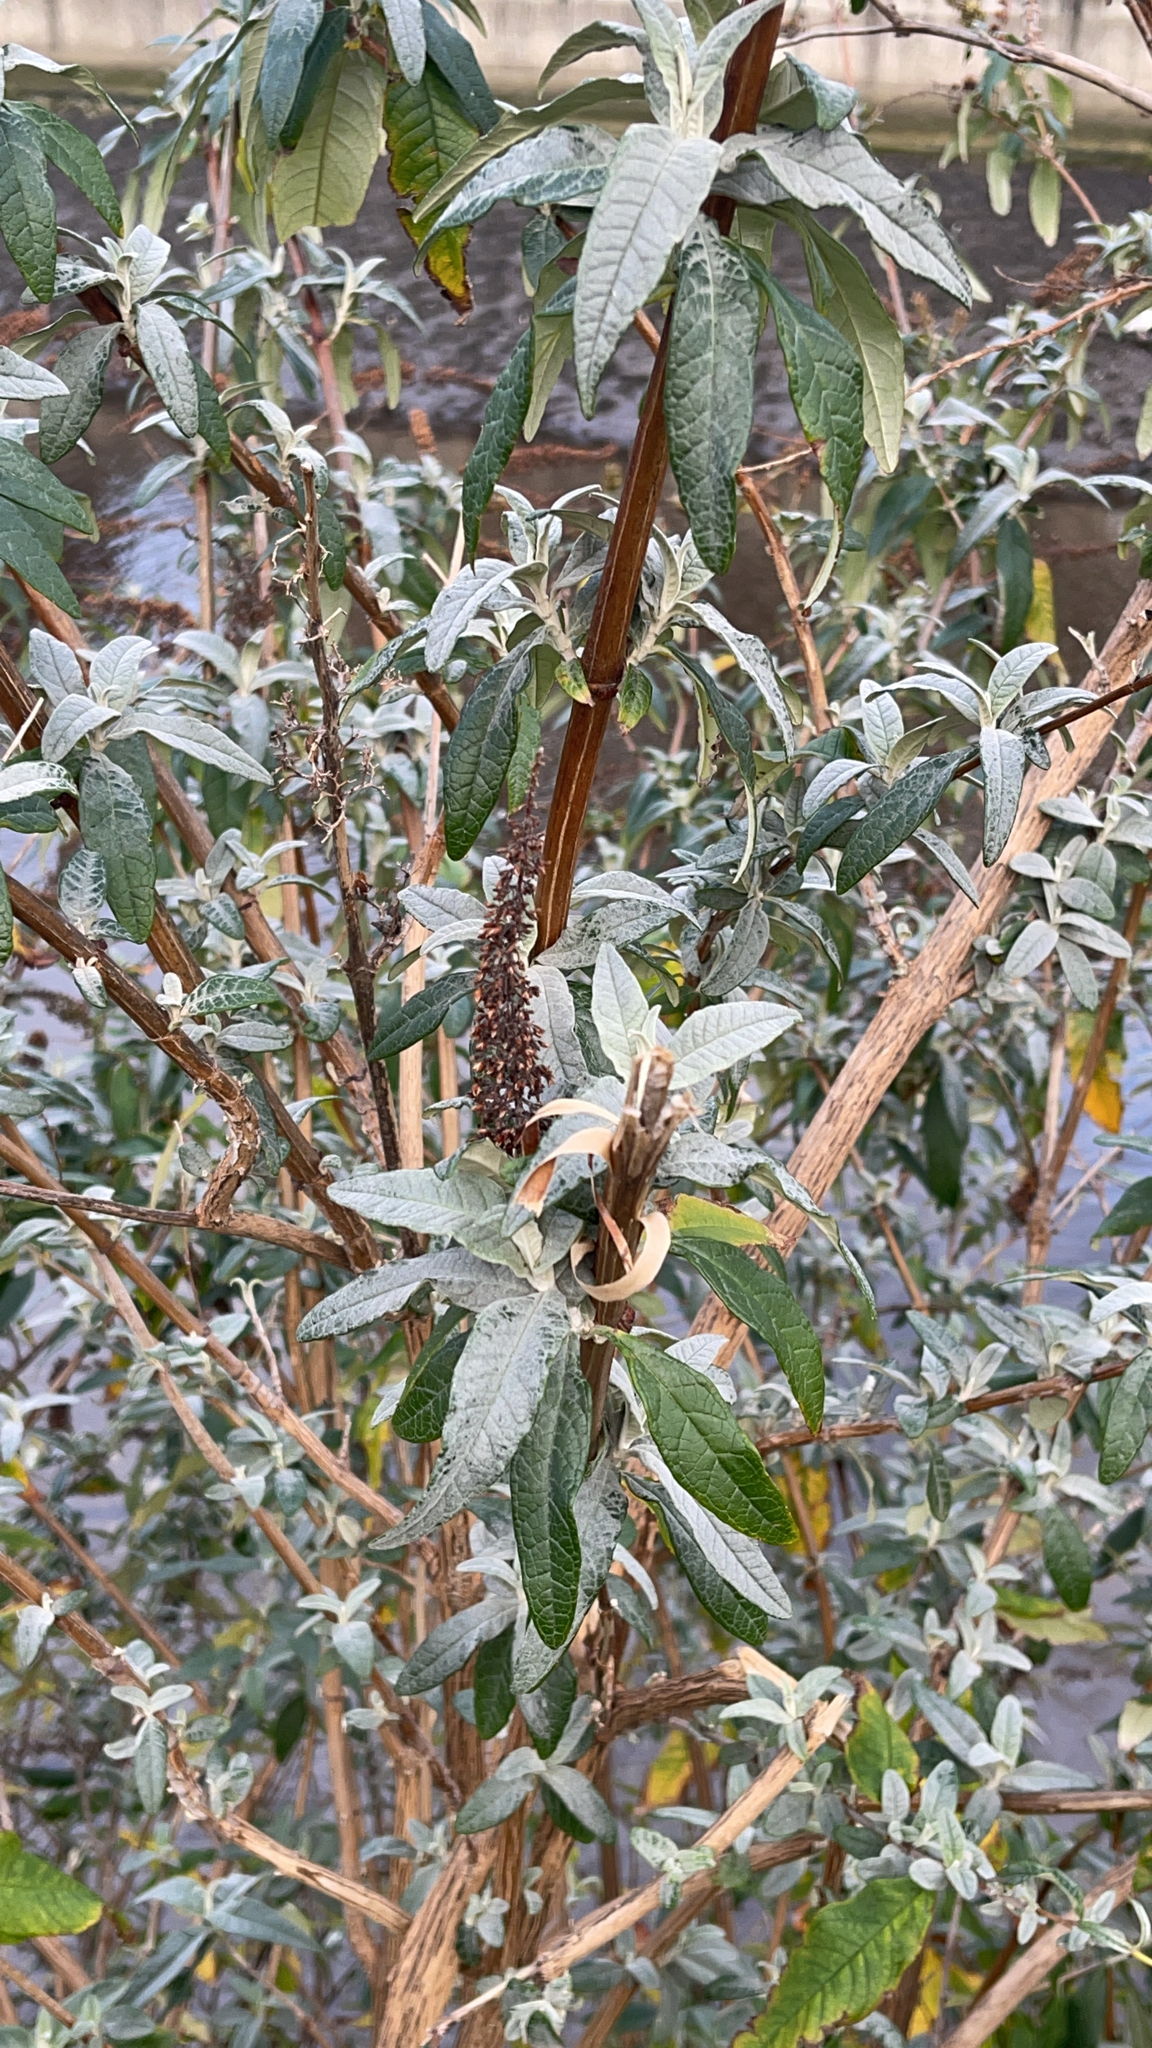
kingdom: Plantae
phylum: Tracheophyta
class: Magnoliopsida
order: Lamiales
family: Scrophulariaceae
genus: Buddleja
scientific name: Buddleja davidii
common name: Butterfly-bush
